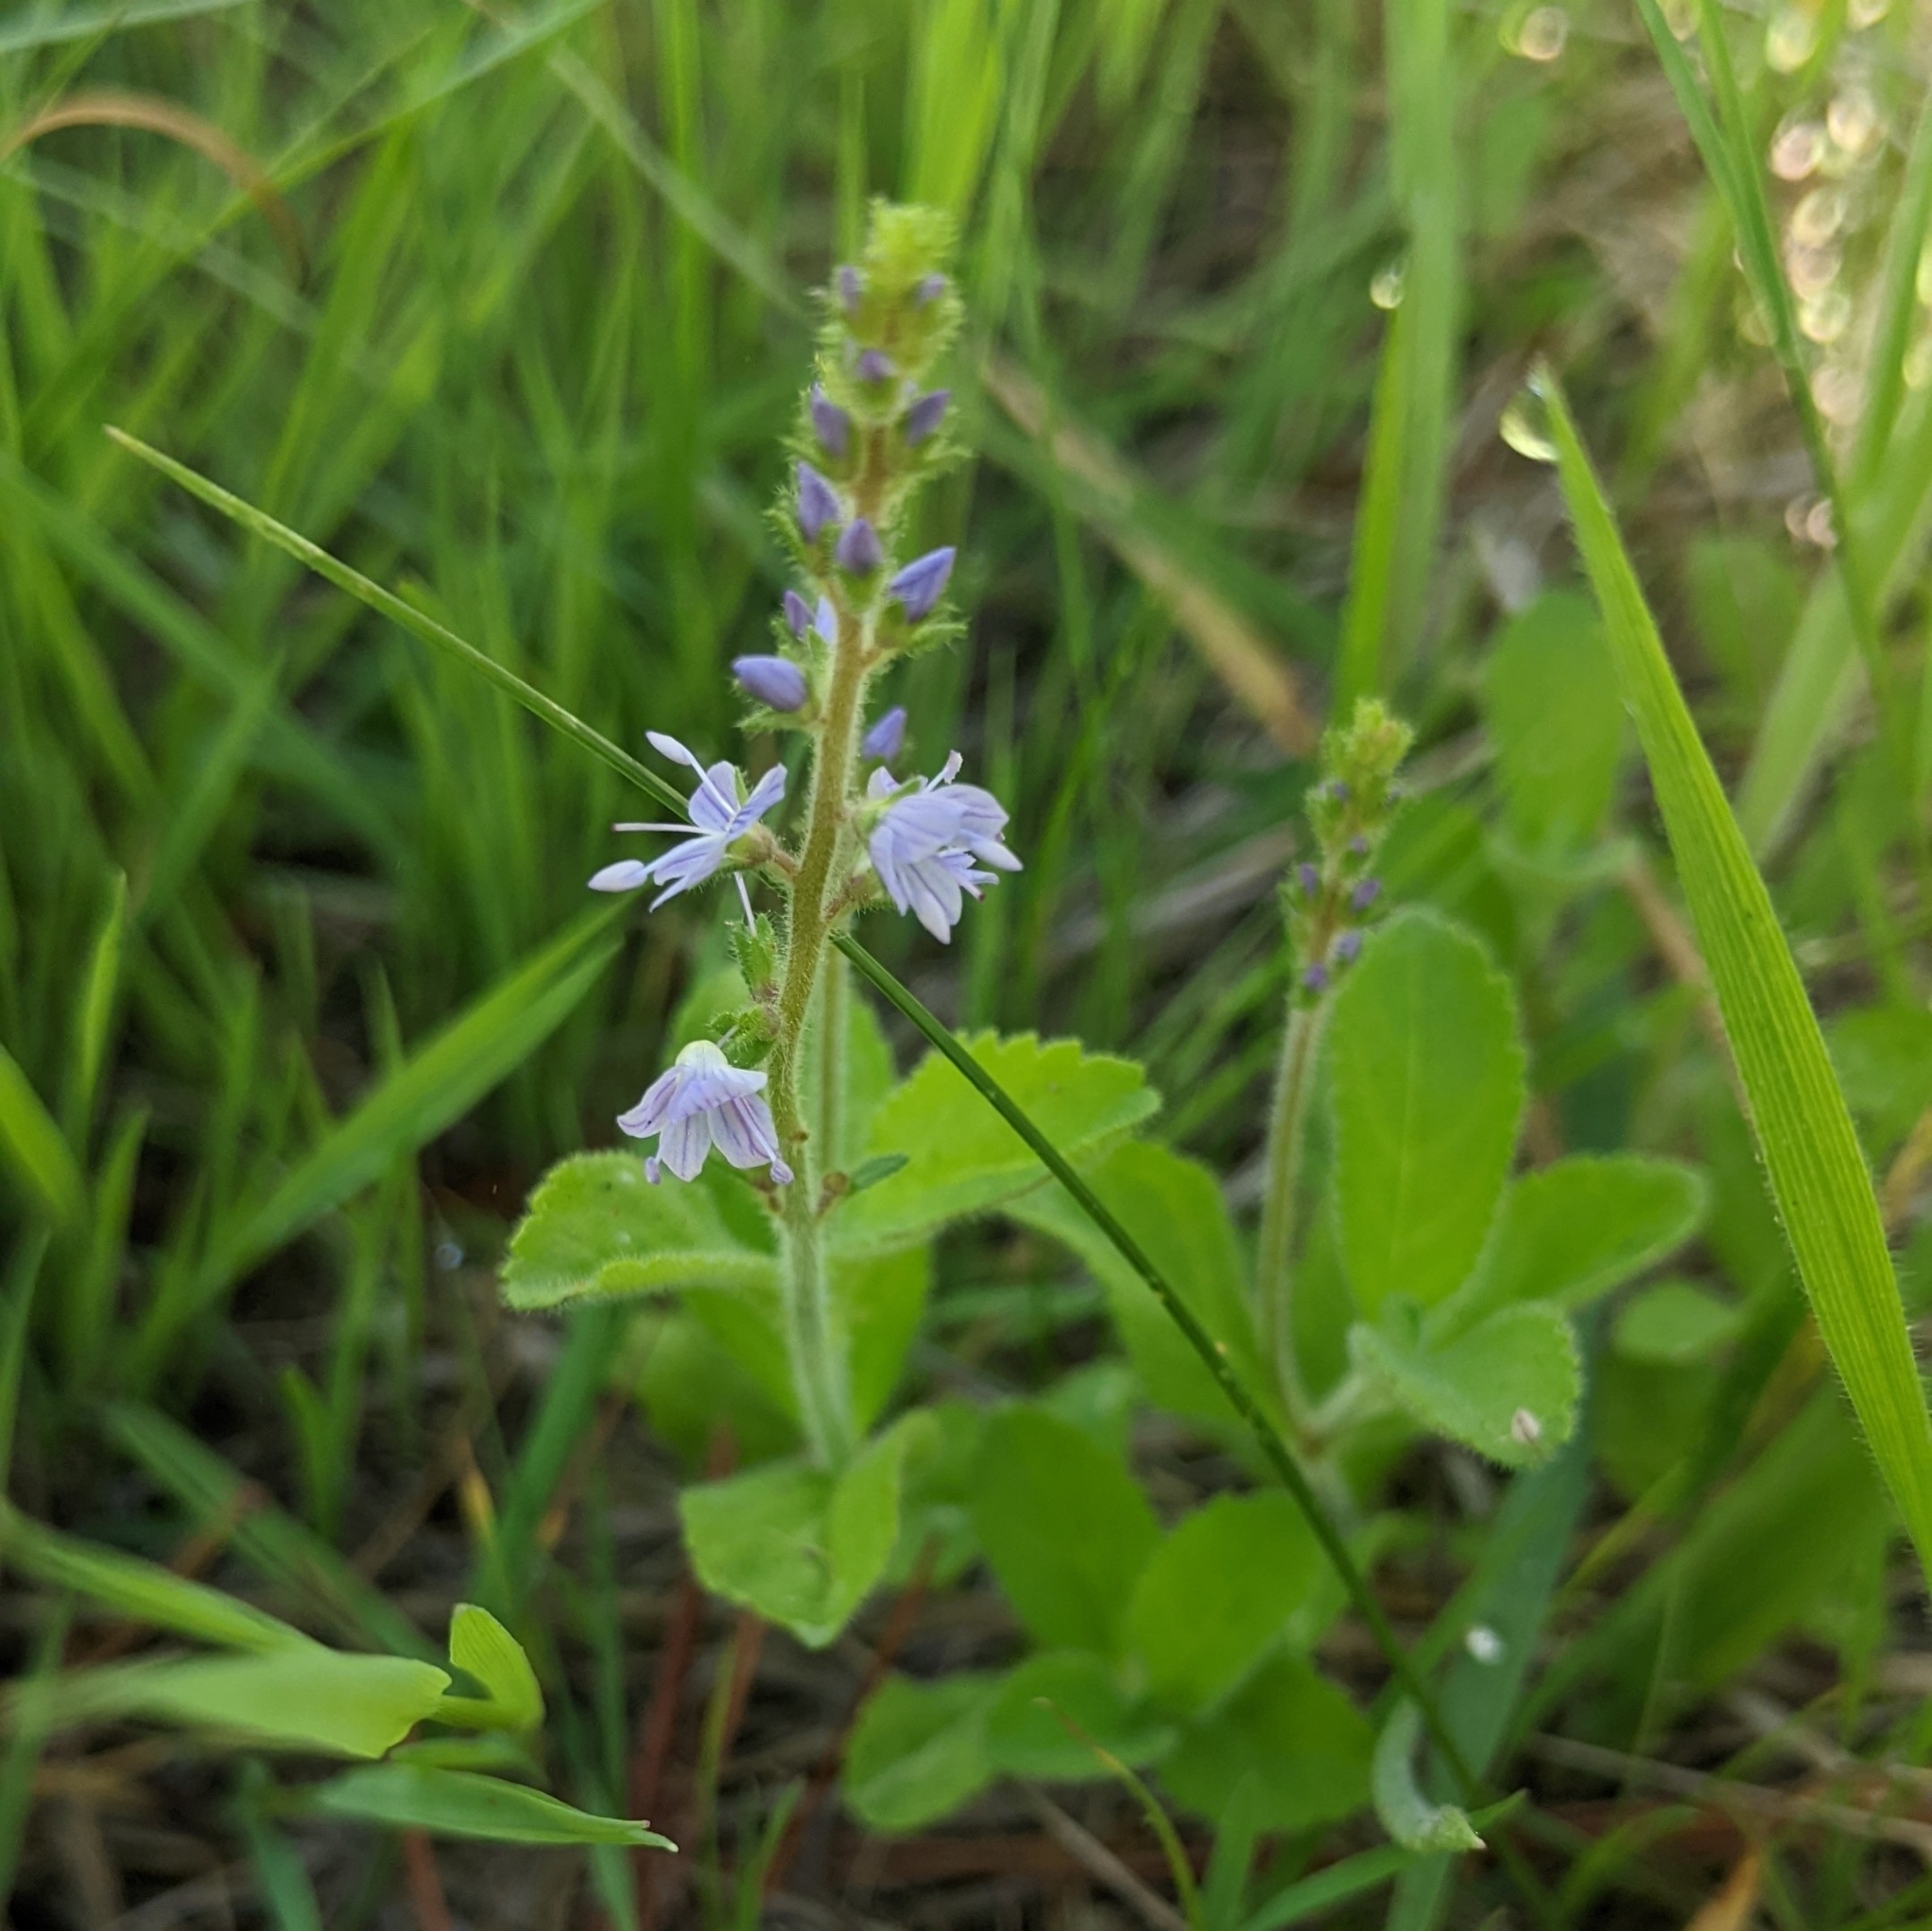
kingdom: Plantae
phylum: Tracheophyta
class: Magnoliopsida
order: Lamiales
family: Plantaginaceae
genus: Veronica
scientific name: Veronica officinalis
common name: Common speedwell
